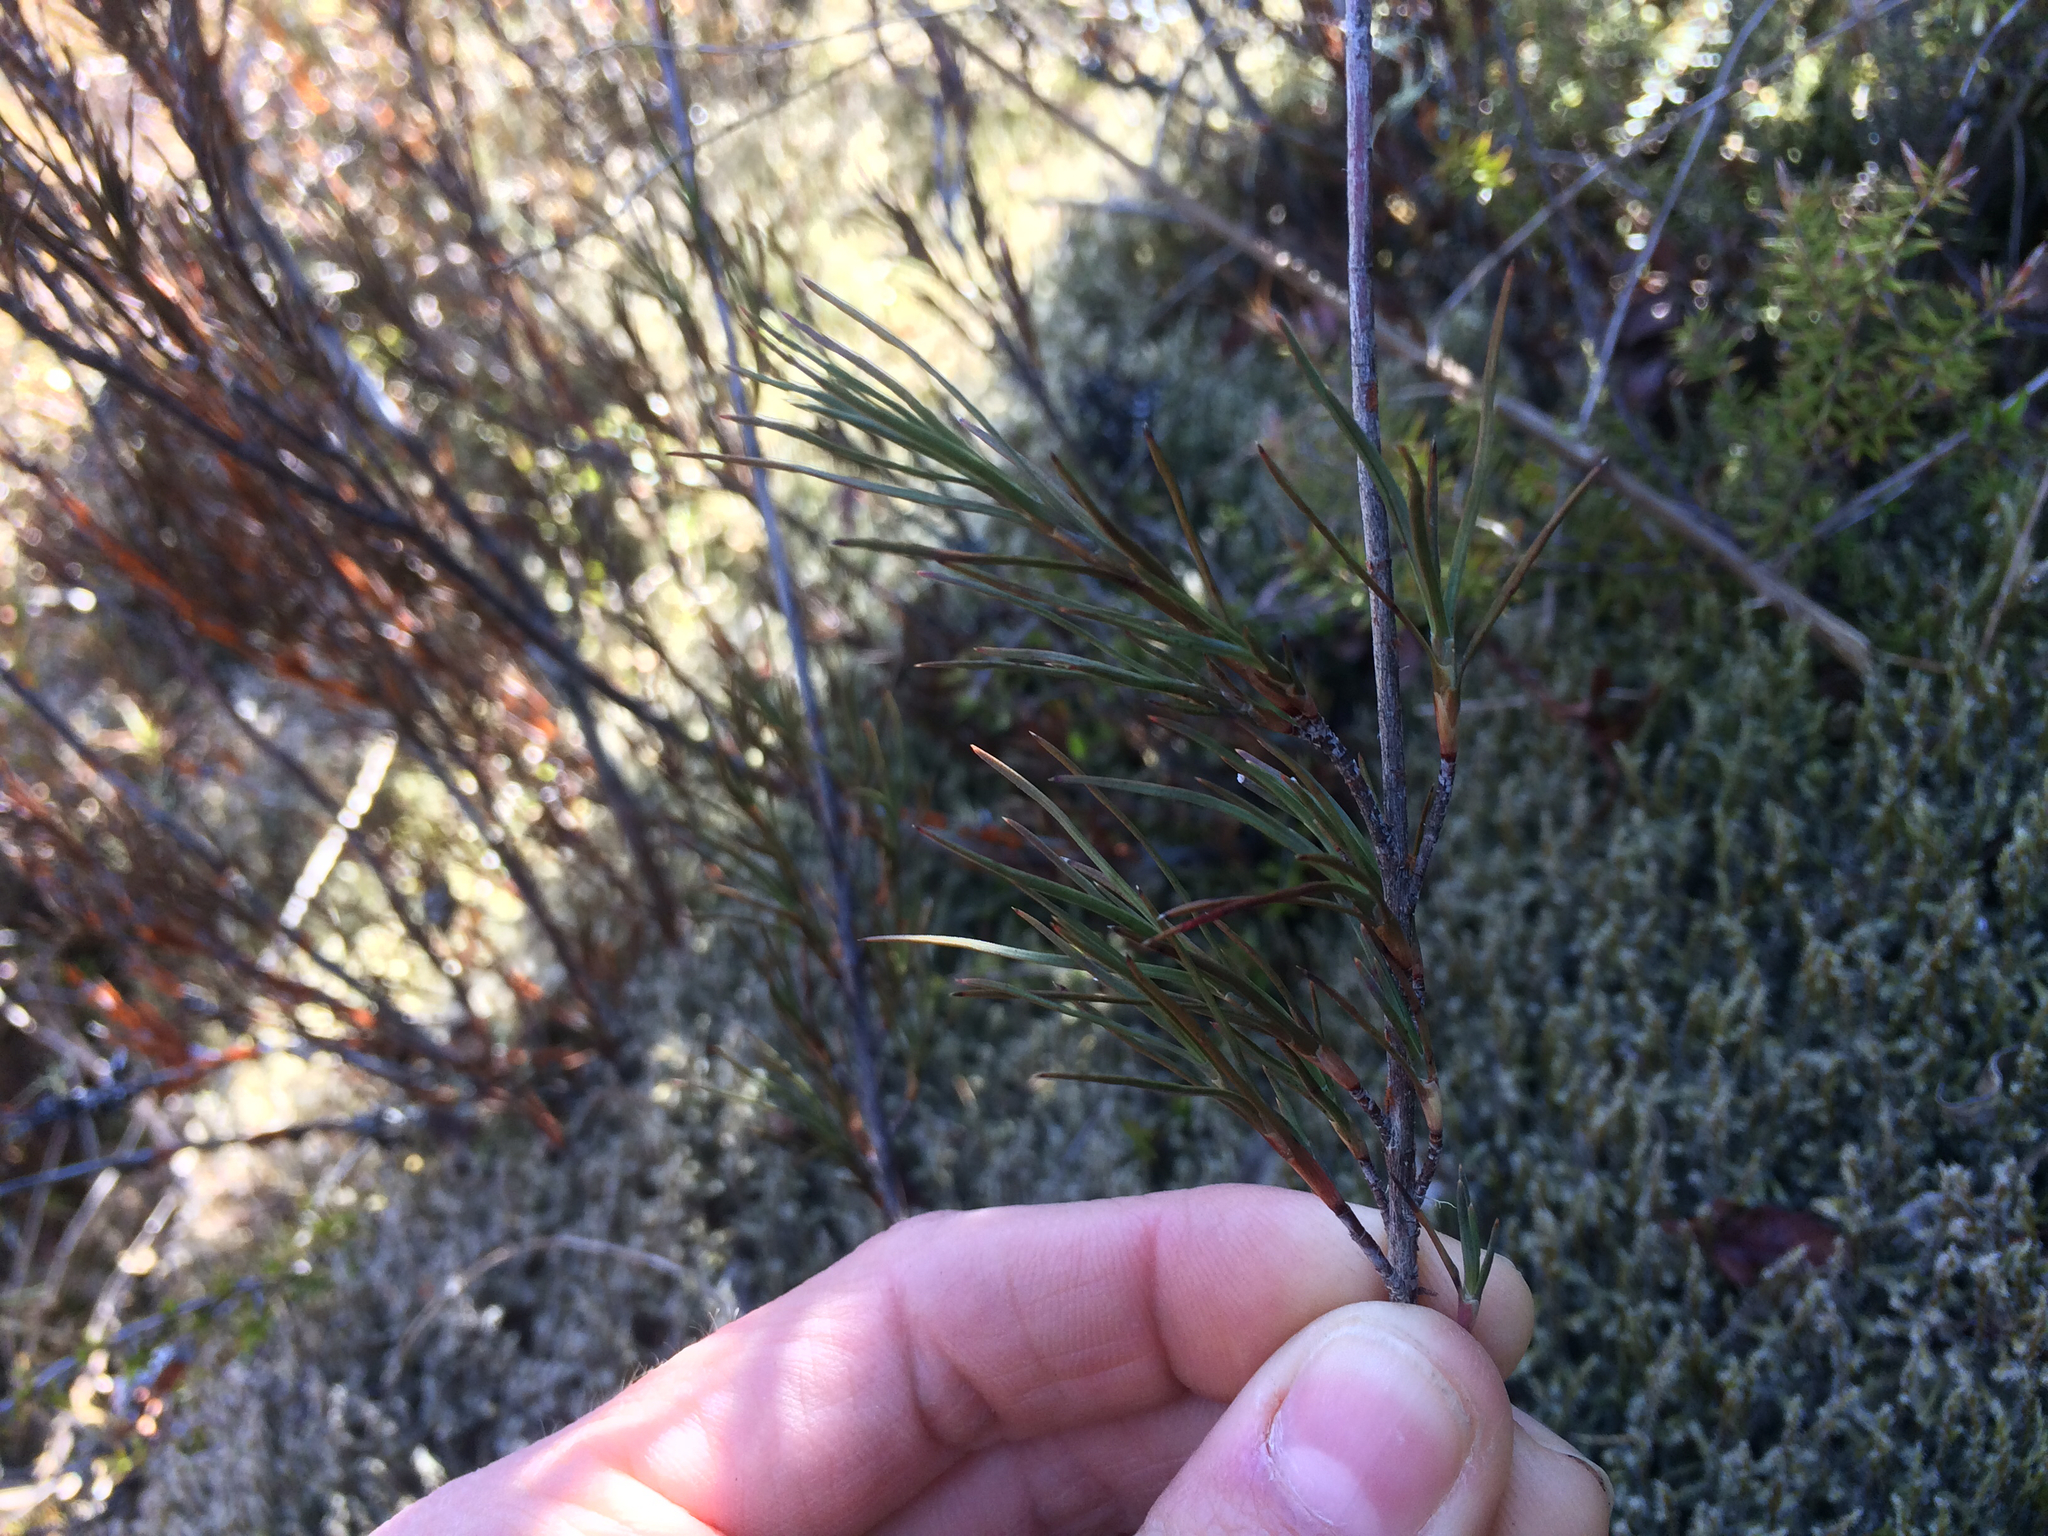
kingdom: Plantae
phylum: Tracheophyta
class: Magnoliopsida
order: Ericales
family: Ericaceae
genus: Dracophyllum
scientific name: Dracophyllum filifolium
